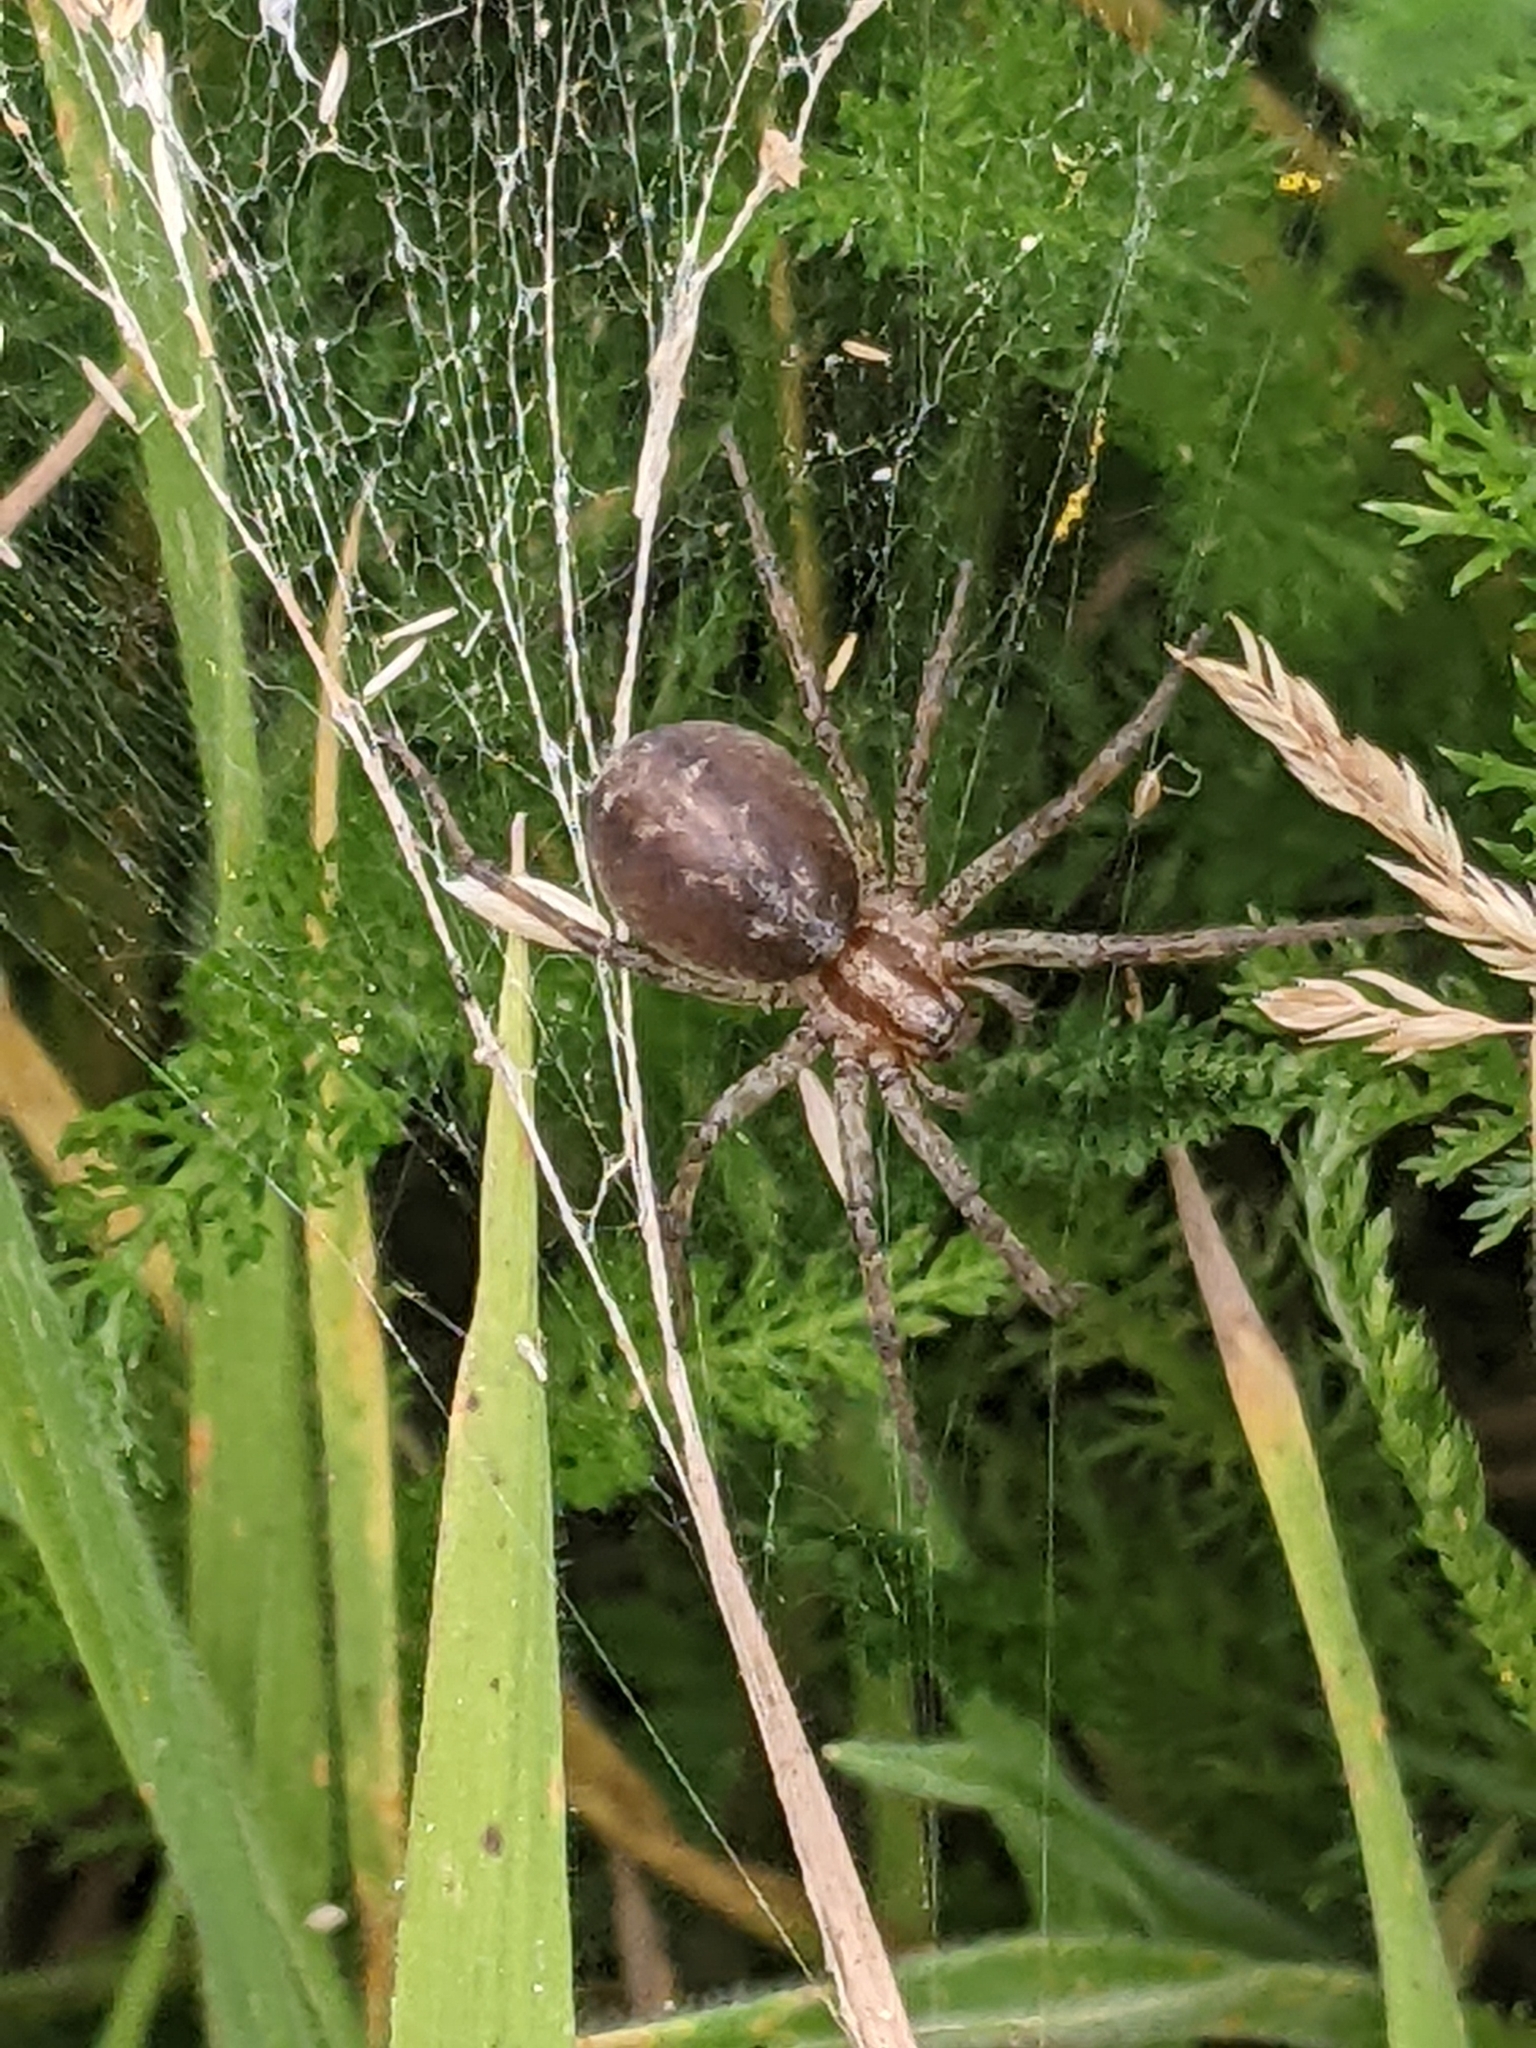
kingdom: Animalia
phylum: Arthropoda
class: Arachnida
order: Araneae
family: Agelenidae
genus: Agelena
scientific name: Agelena labyrinthica
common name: Labyrinth spider
